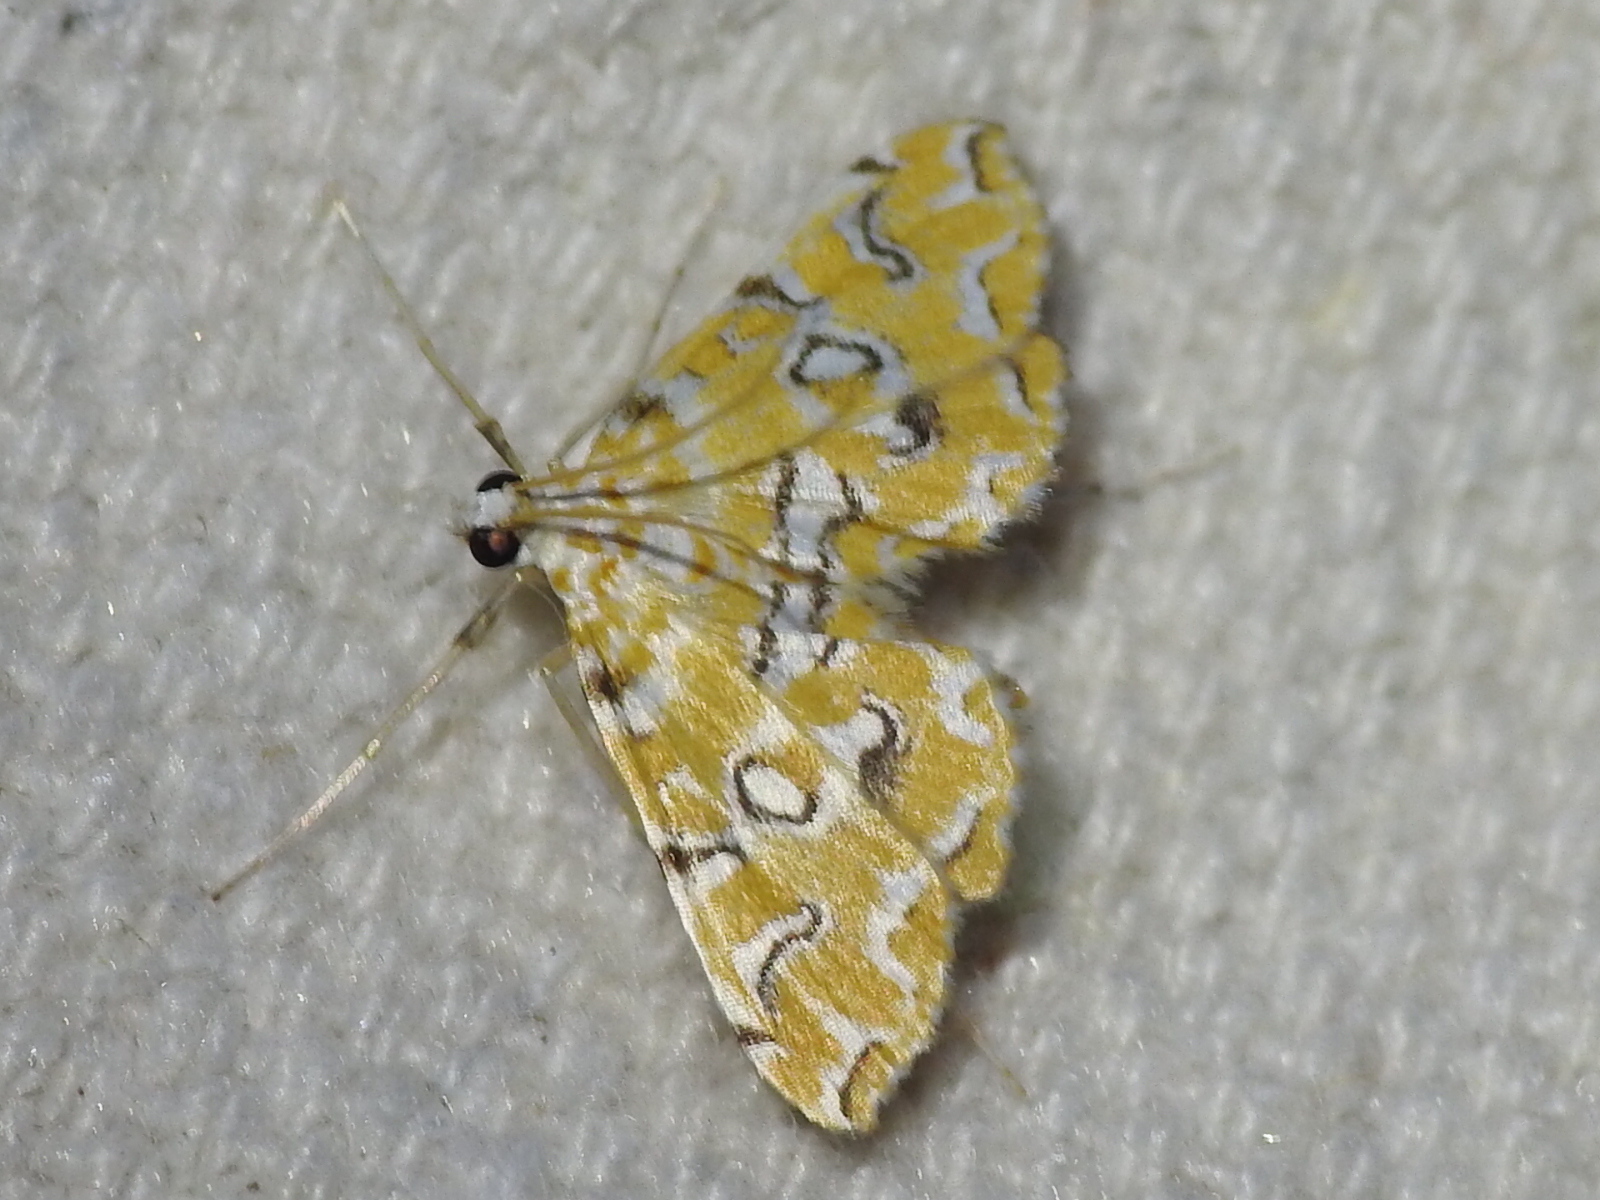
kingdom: Animalia
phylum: Arthropoda
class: Insecta
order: Lepidoptera
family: Crambidae
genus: Elophila
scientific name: Elophila icciusalis
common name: Pondside pyralid moth
